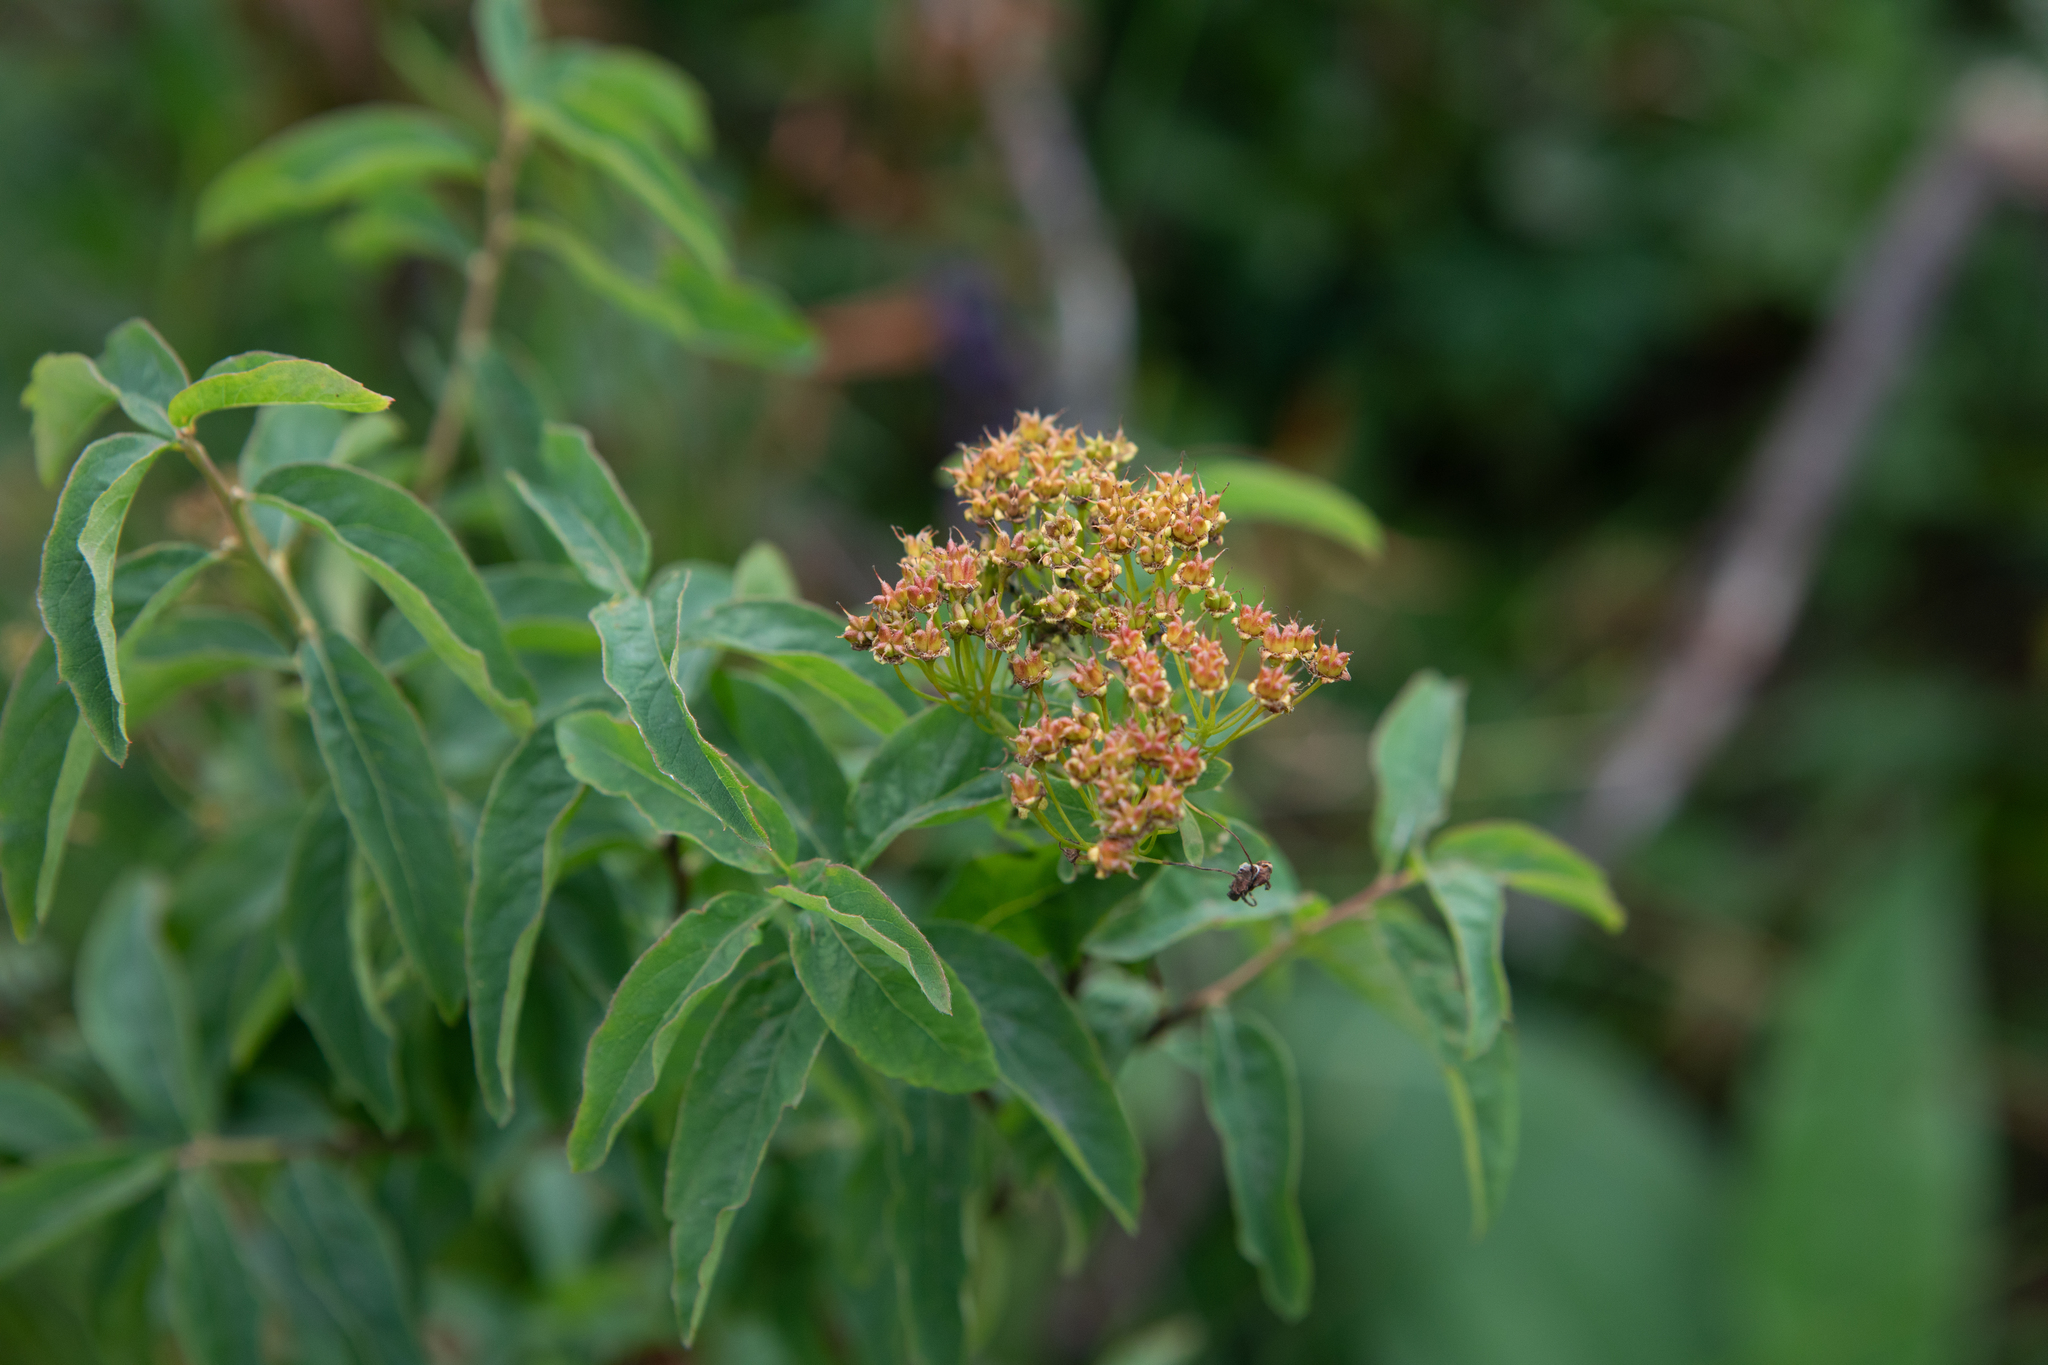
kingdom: Plantae
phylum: Tracheophyta
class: Magnoliopsida
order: Rosales
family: Rosaceae
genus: Spiraea
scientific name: Spiraea media
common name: Russian spiraea
